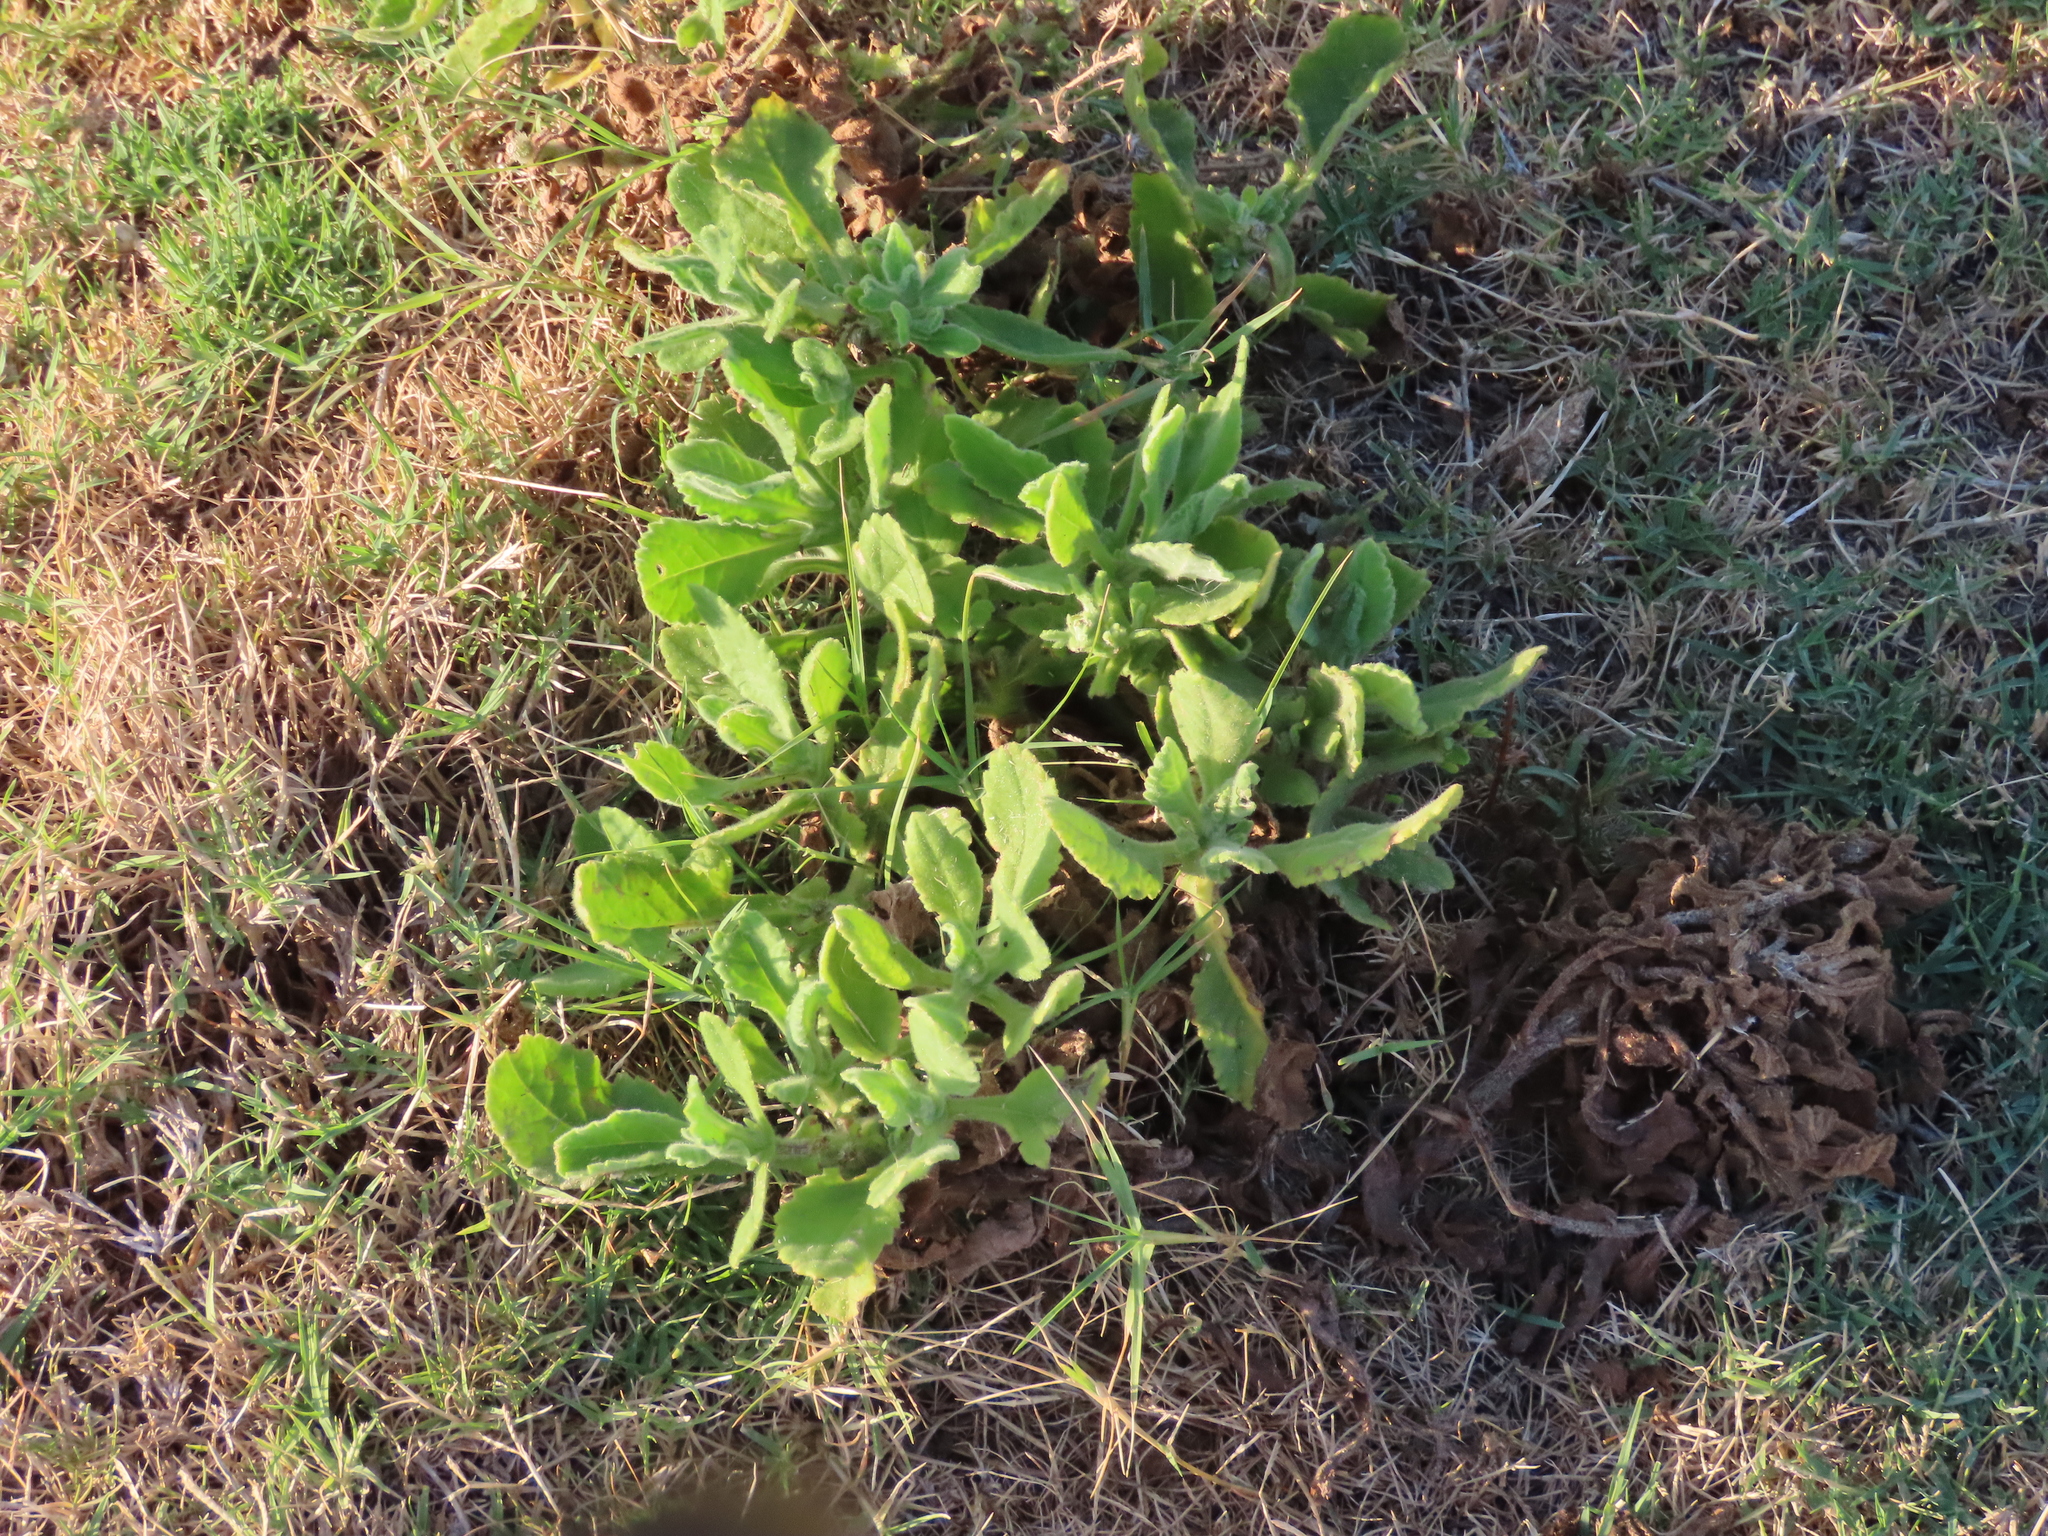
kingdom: Plantae
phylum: Tracheophyta
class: Magnoliopsida
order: Asterales
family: Asteraceae
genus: Senecio
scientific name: Senecio selloi
